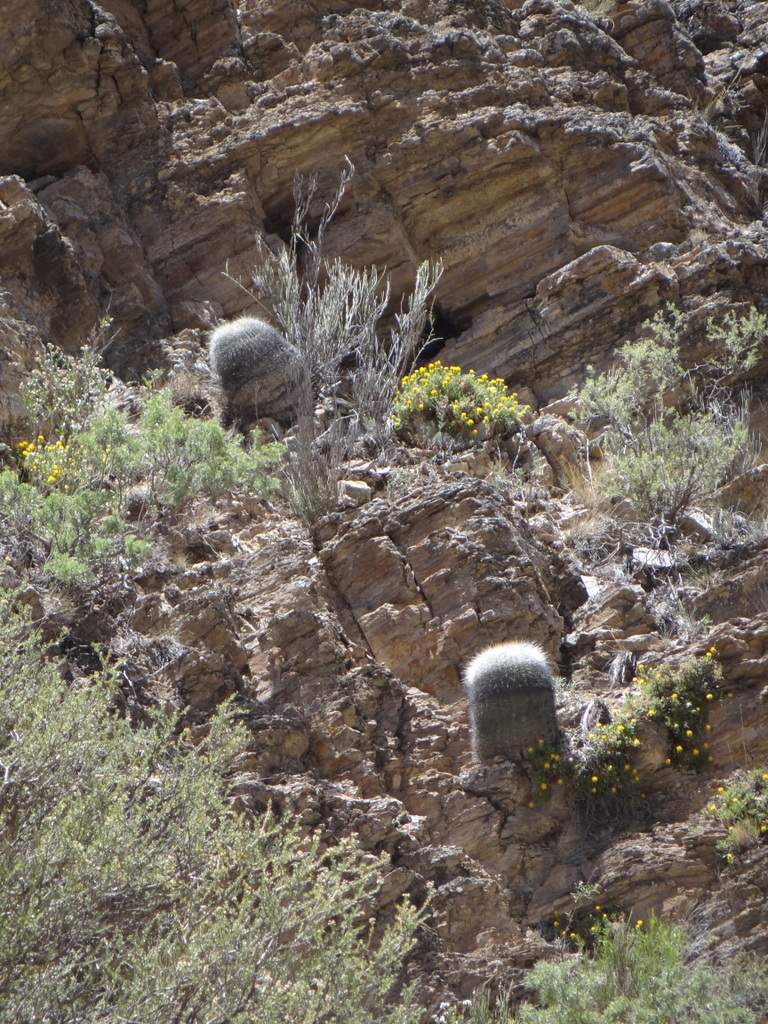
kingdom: Plantae
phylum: Tracheophyta
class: Magnoliopsida
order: Caryophyllales
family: Cactaceae
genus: Soehrensia
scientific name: Soehrensia formosa
